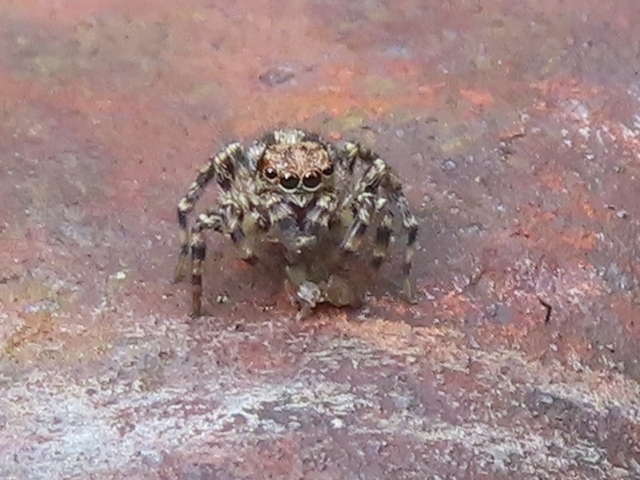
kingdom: Animalia
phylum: Arthropoda
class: Arachnida
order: Araneae
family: Salticidae
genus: Naphrys
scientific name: Naphrys pulex
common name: Flea jumping spider
